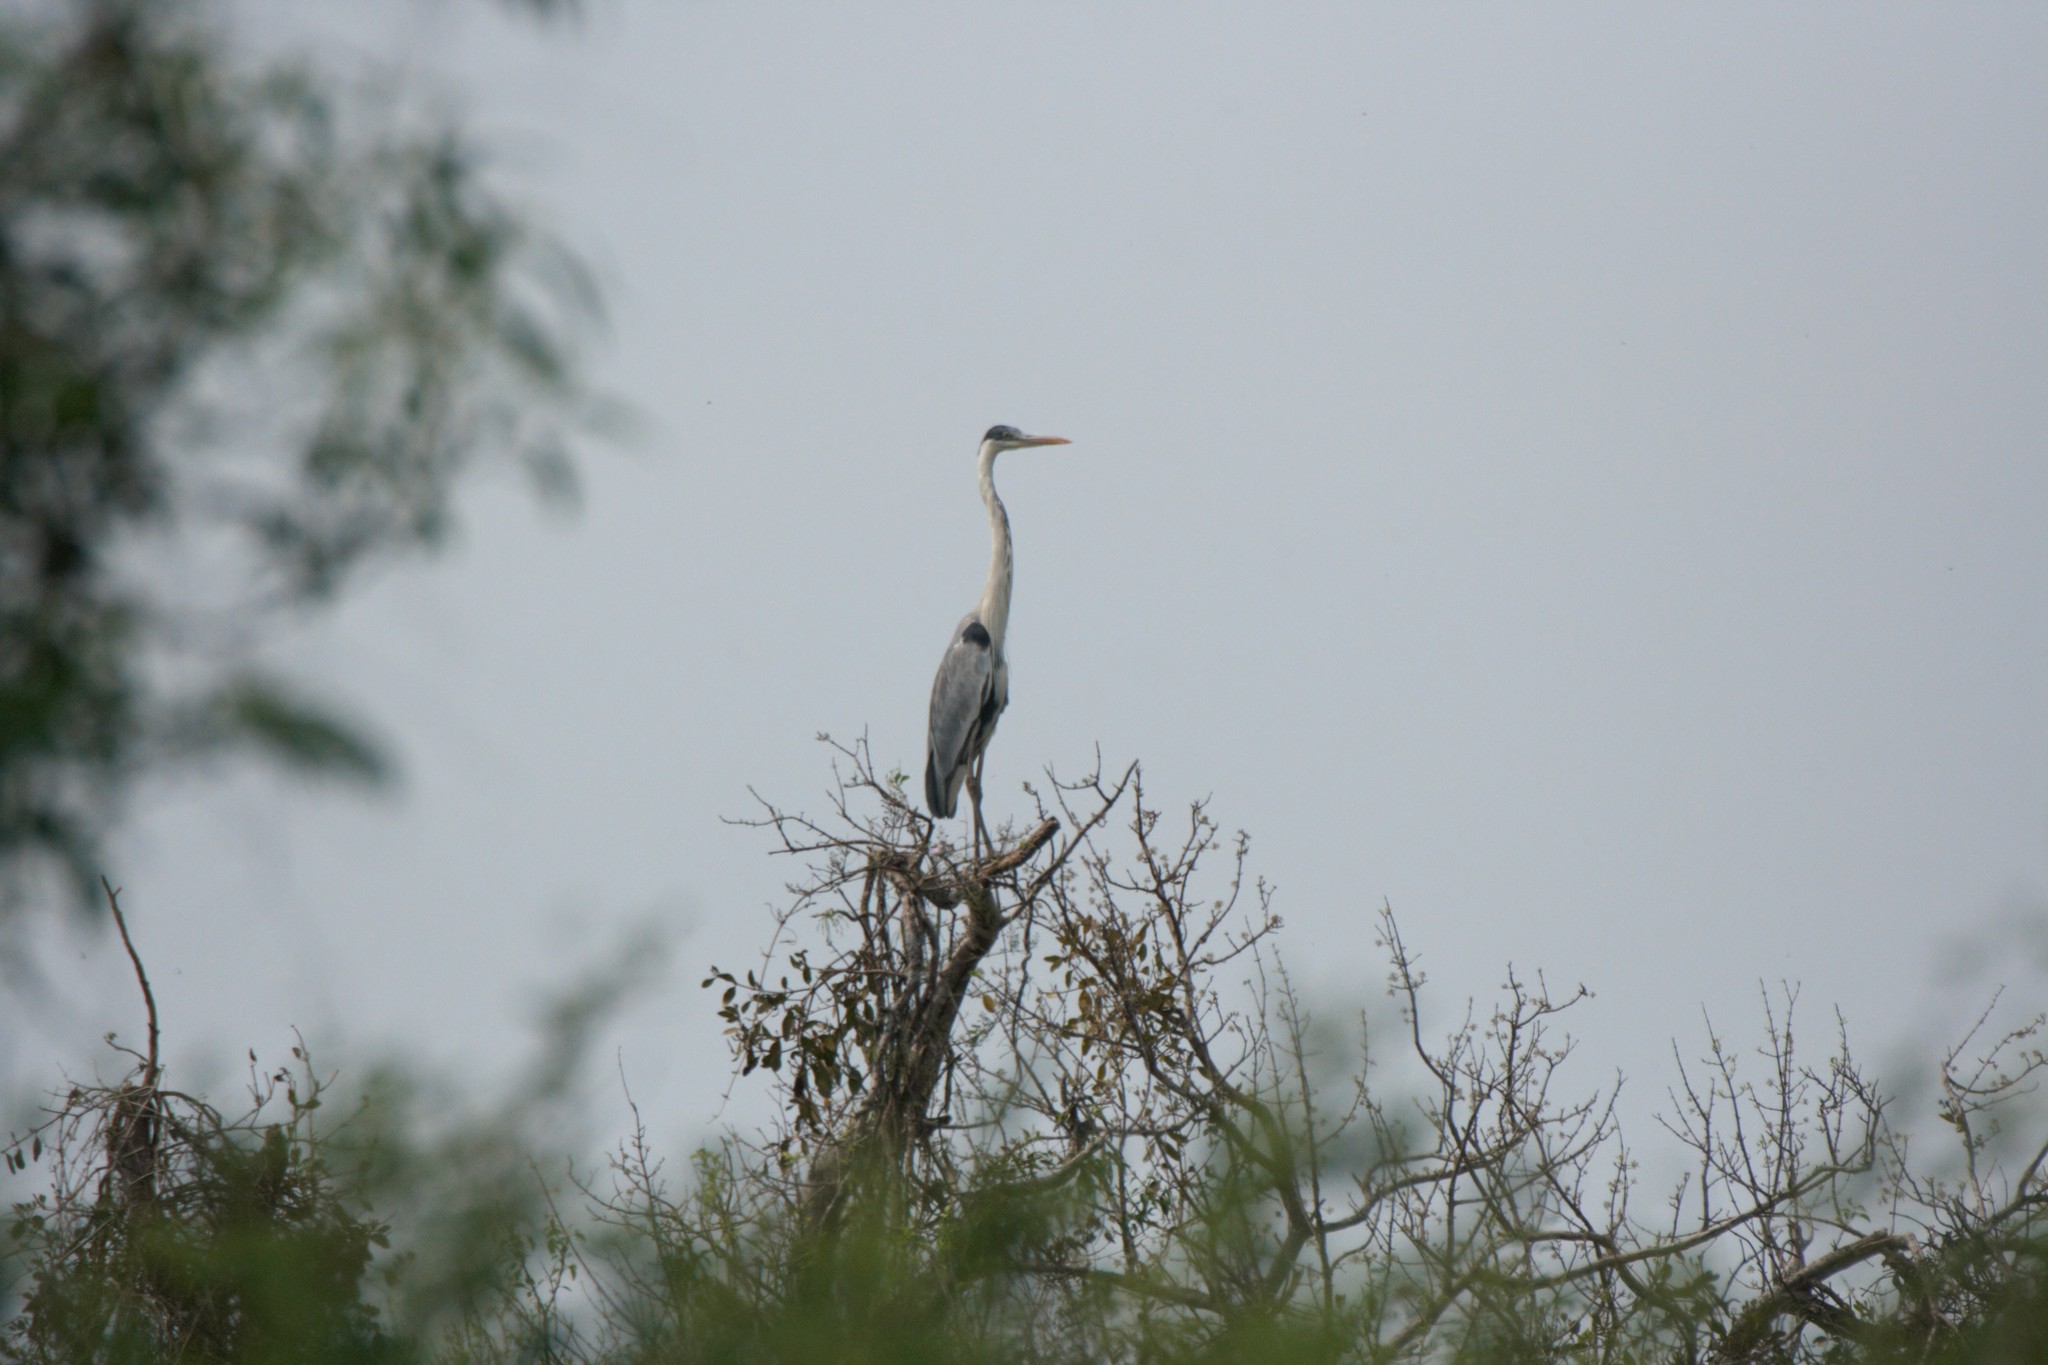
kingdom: Animalia
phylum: Chordata
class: Aves
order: Pelecaniformes
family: Ardeidae
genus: Ardea
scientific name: Ardea cocoi
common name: Cocoi heron
